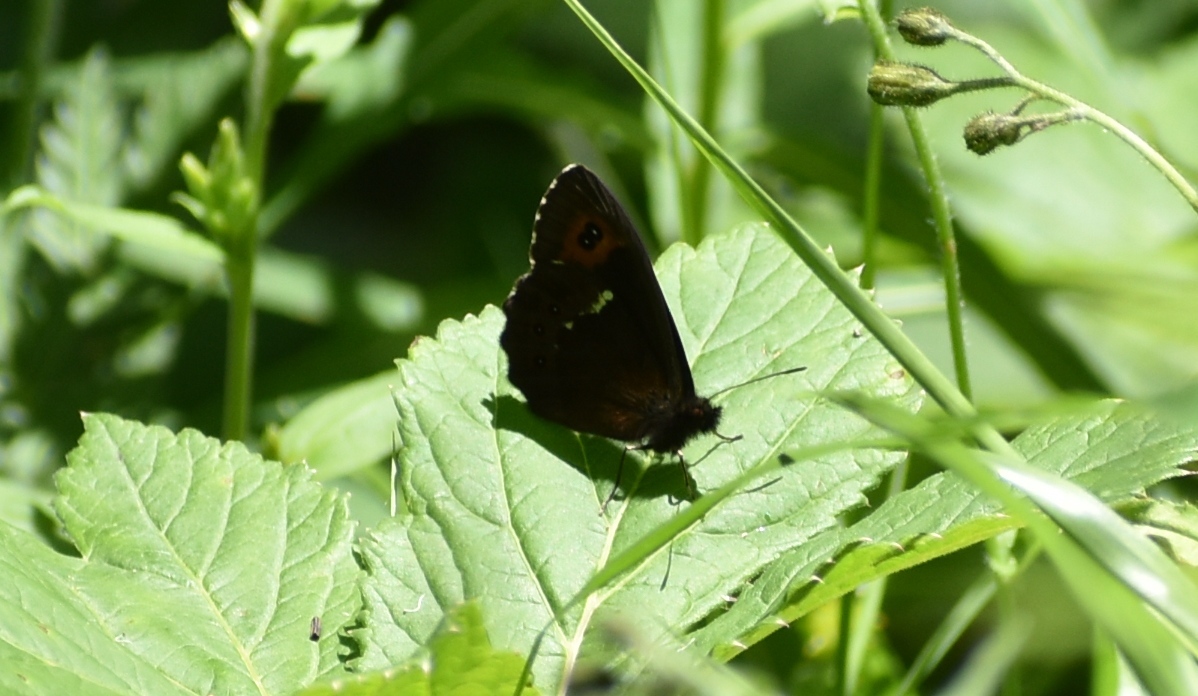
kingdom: Animalia
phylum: Arthropoda
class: Insecta
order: Lepidoptera
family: Nymphalidae
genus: Erebia
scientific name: Erebia ligea
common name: Arran brown
